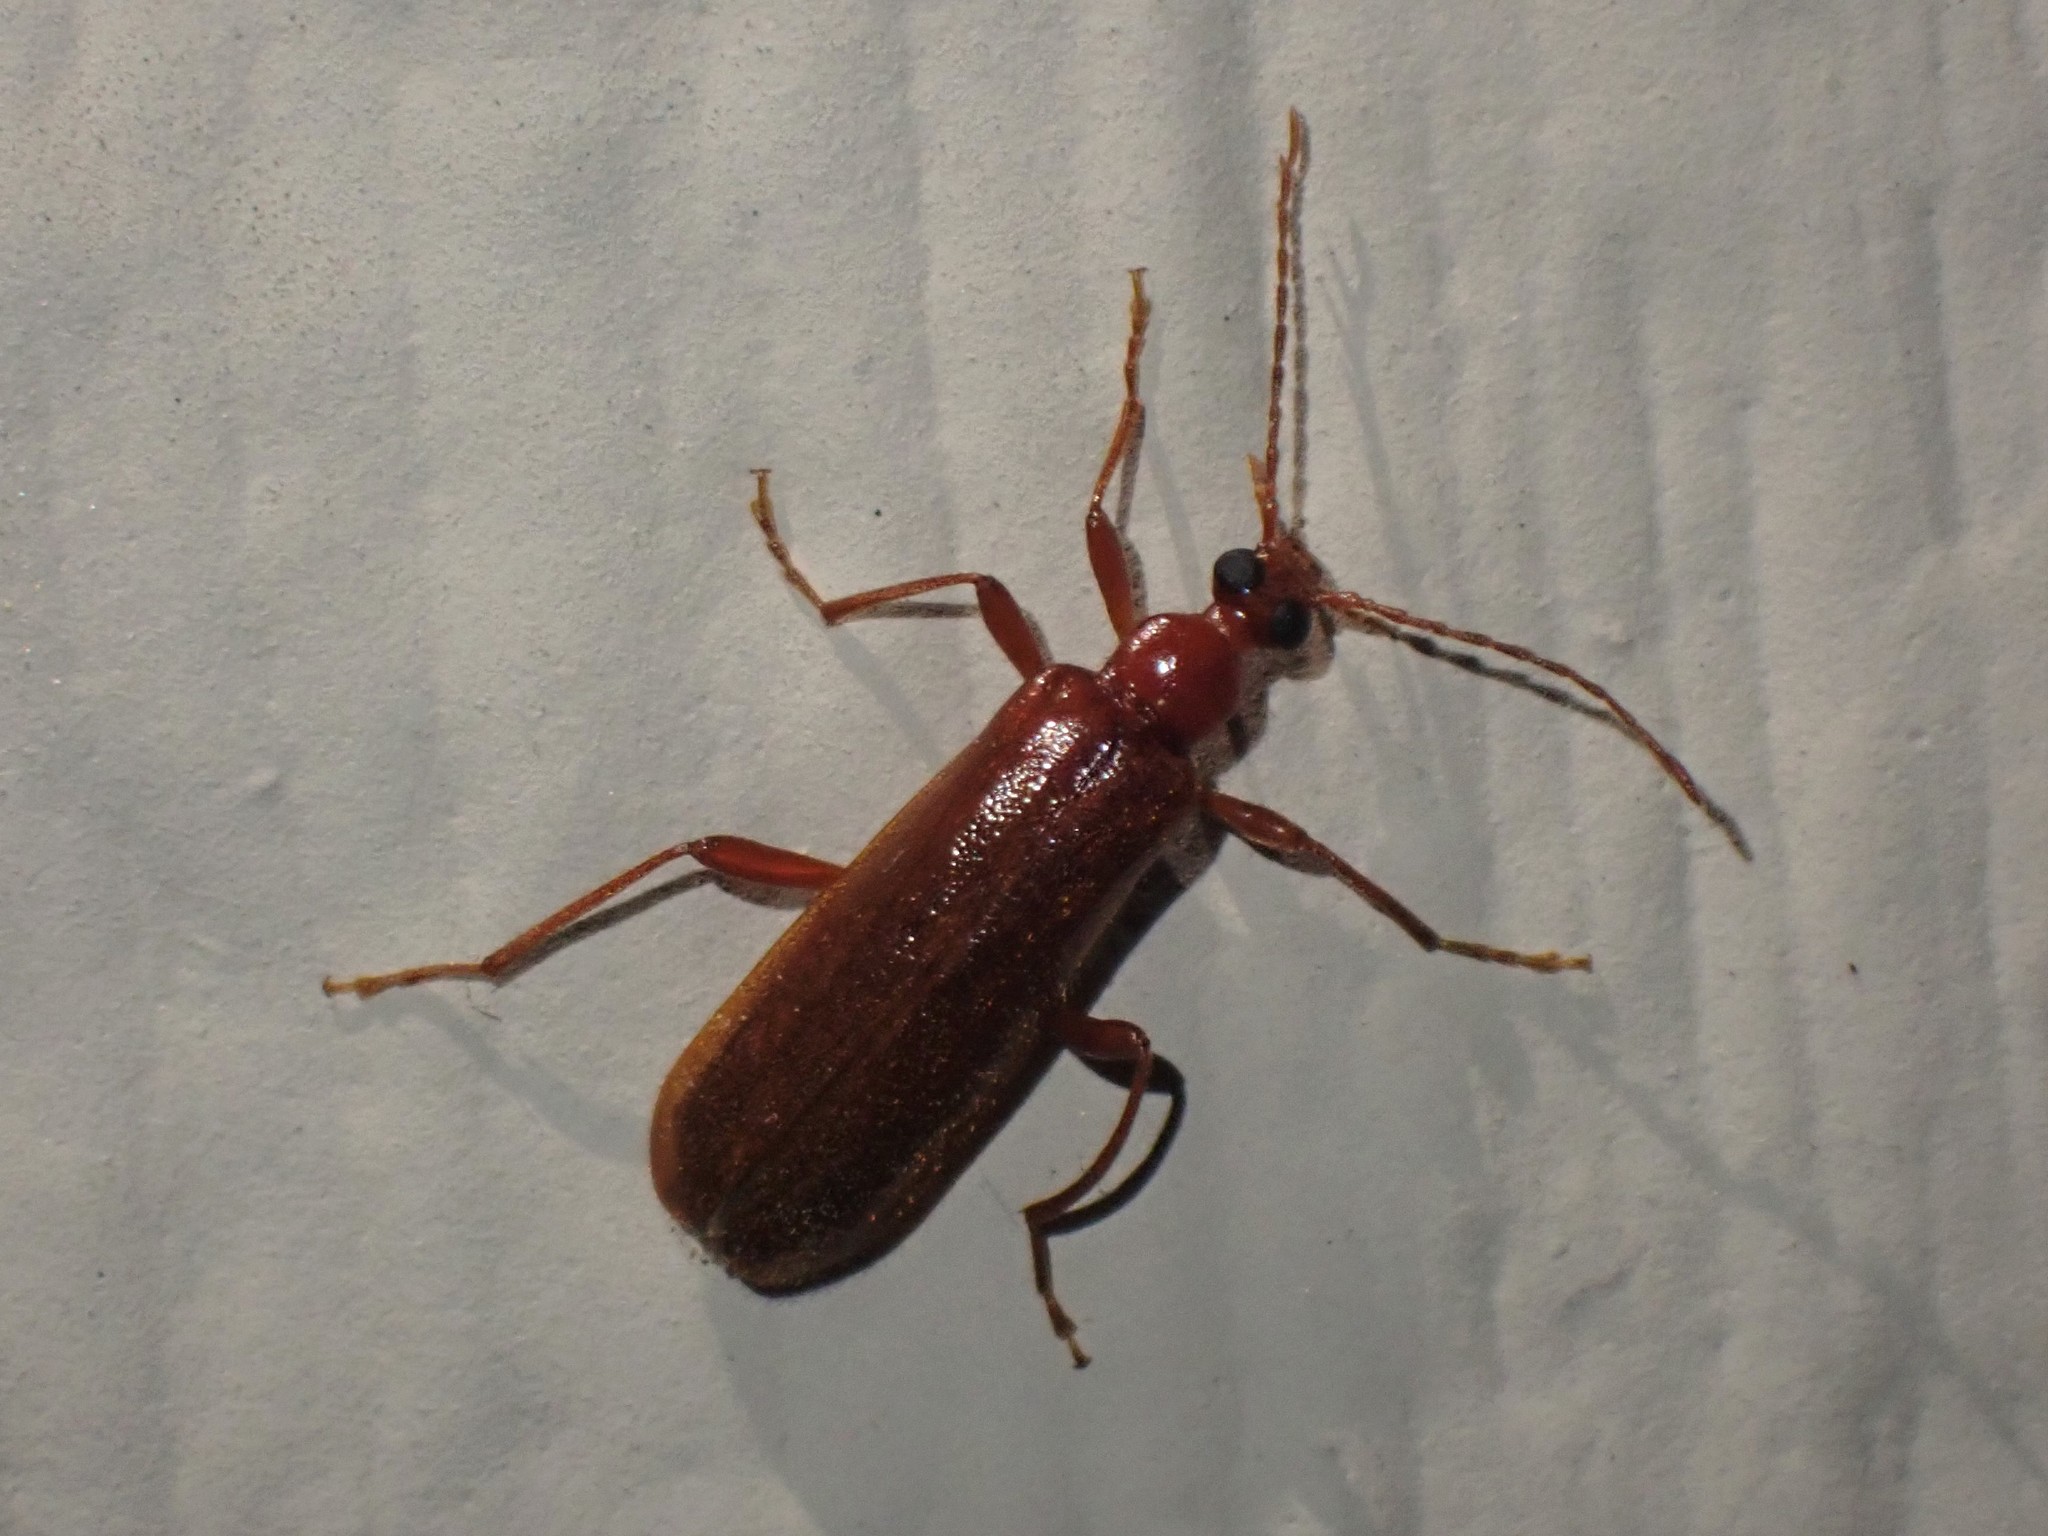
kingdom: Animalia
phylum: Arthropoda
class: Insecta
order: Coleoptera
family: Pyrochroidae
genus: Dendroides
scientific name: Dendroides ephemeroides
